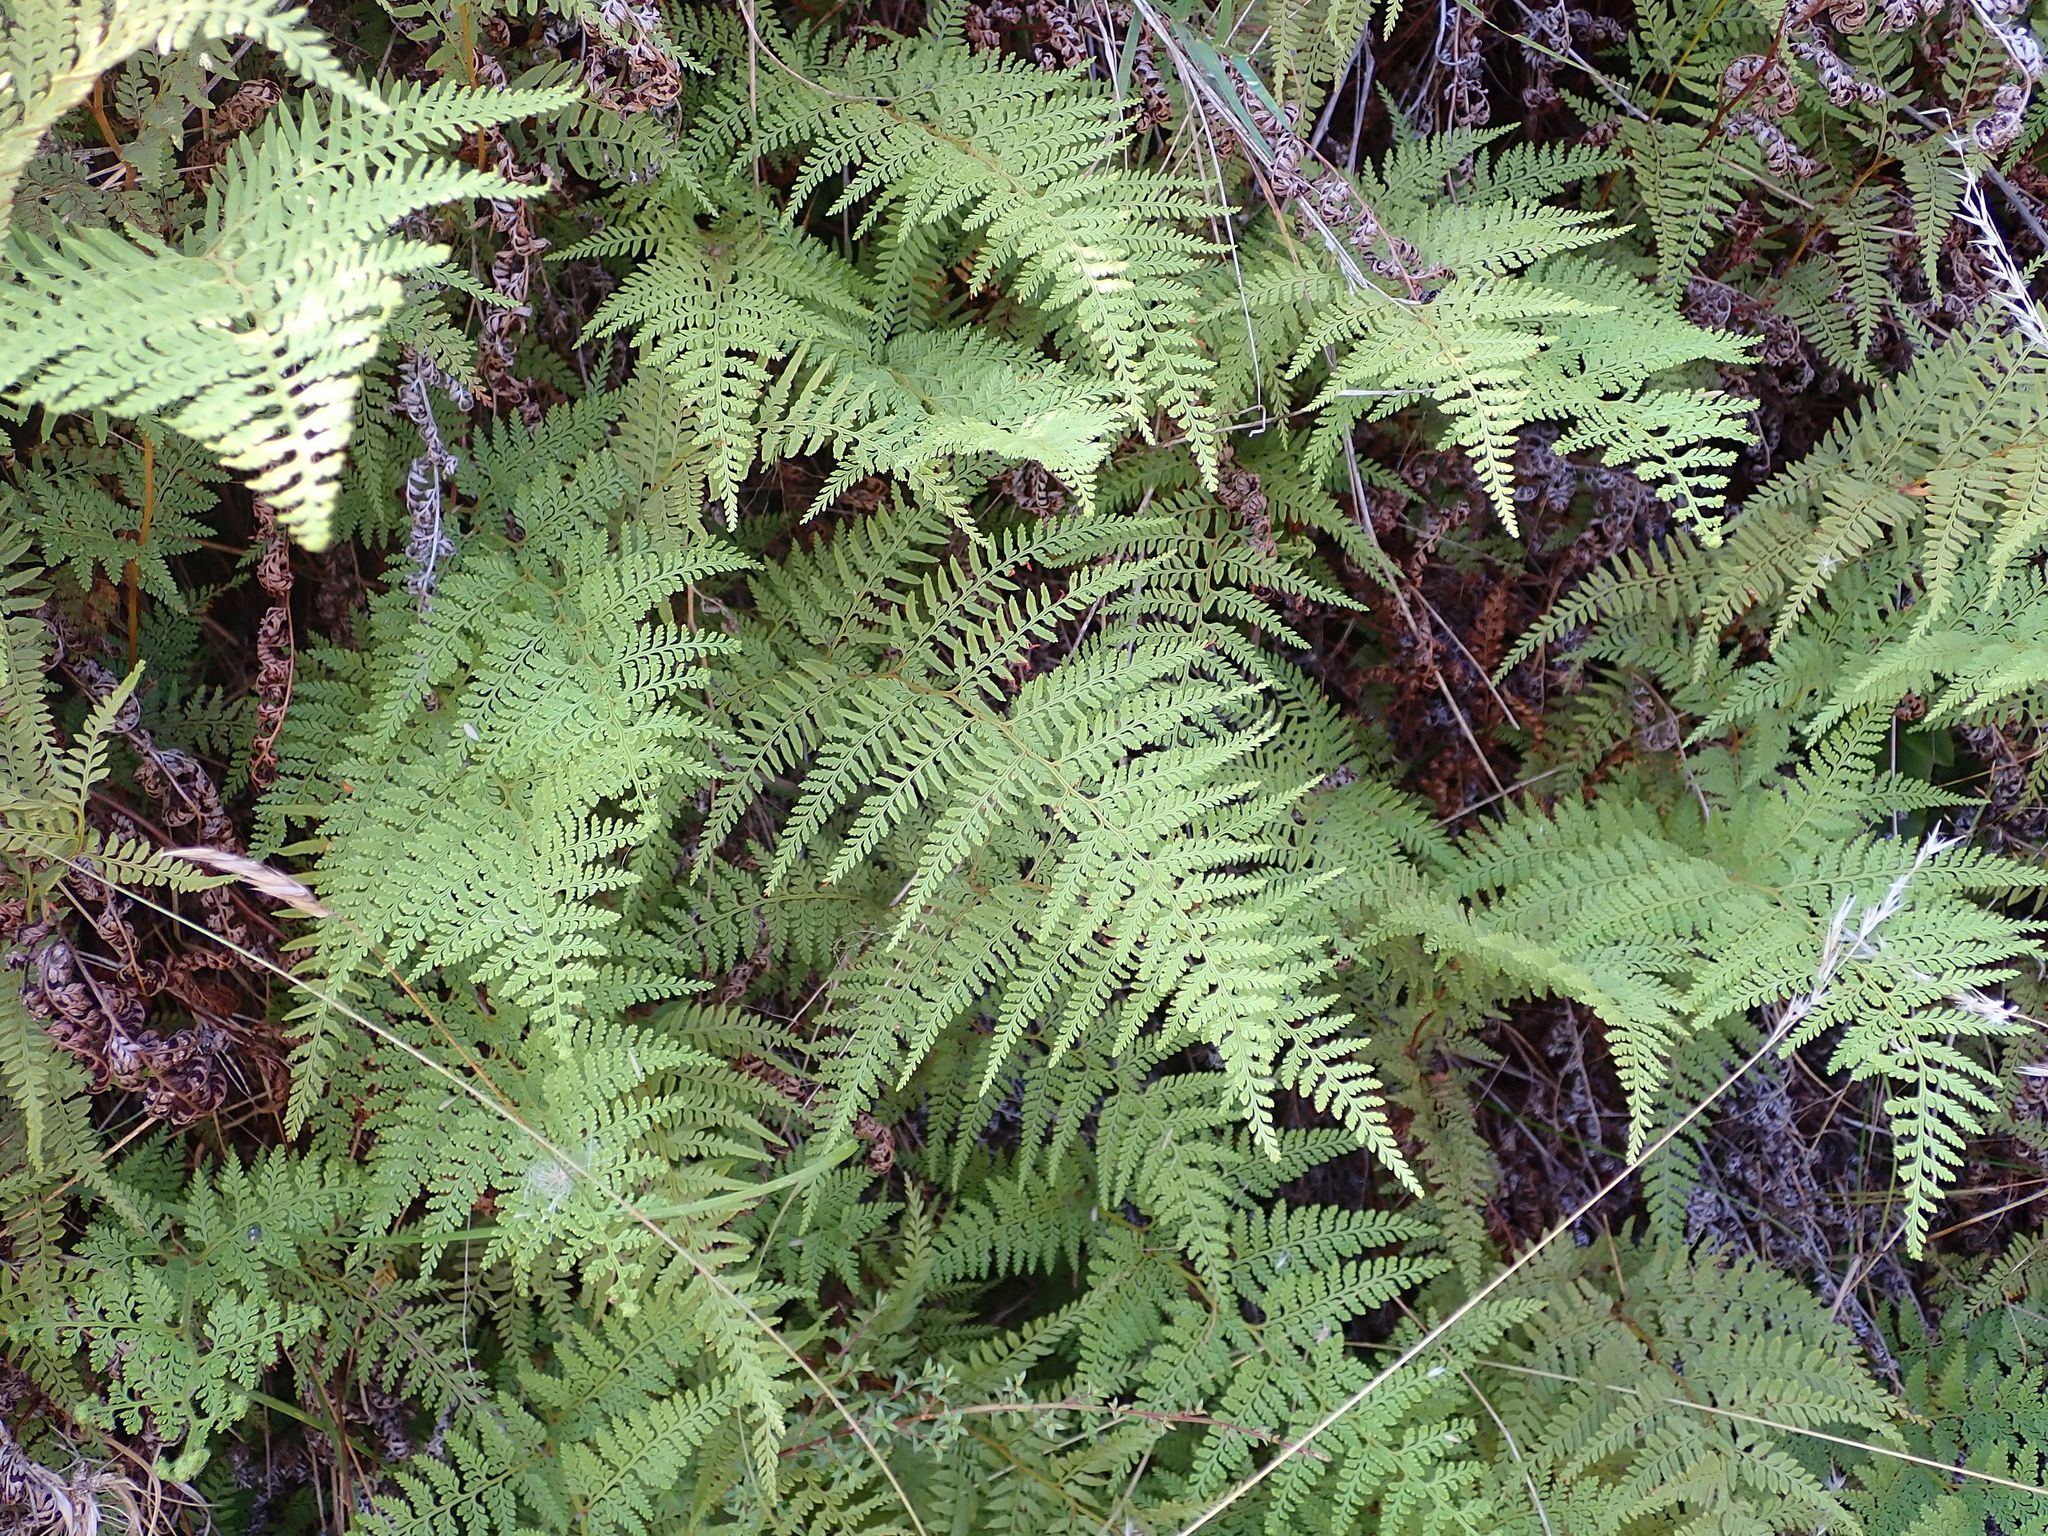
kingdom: Plantae
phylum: Tracheophyta
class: Polypodiopsida
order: Polypodiales
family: Dennstaedtiaceae
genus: Paesia
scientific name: Paesia scaberula
